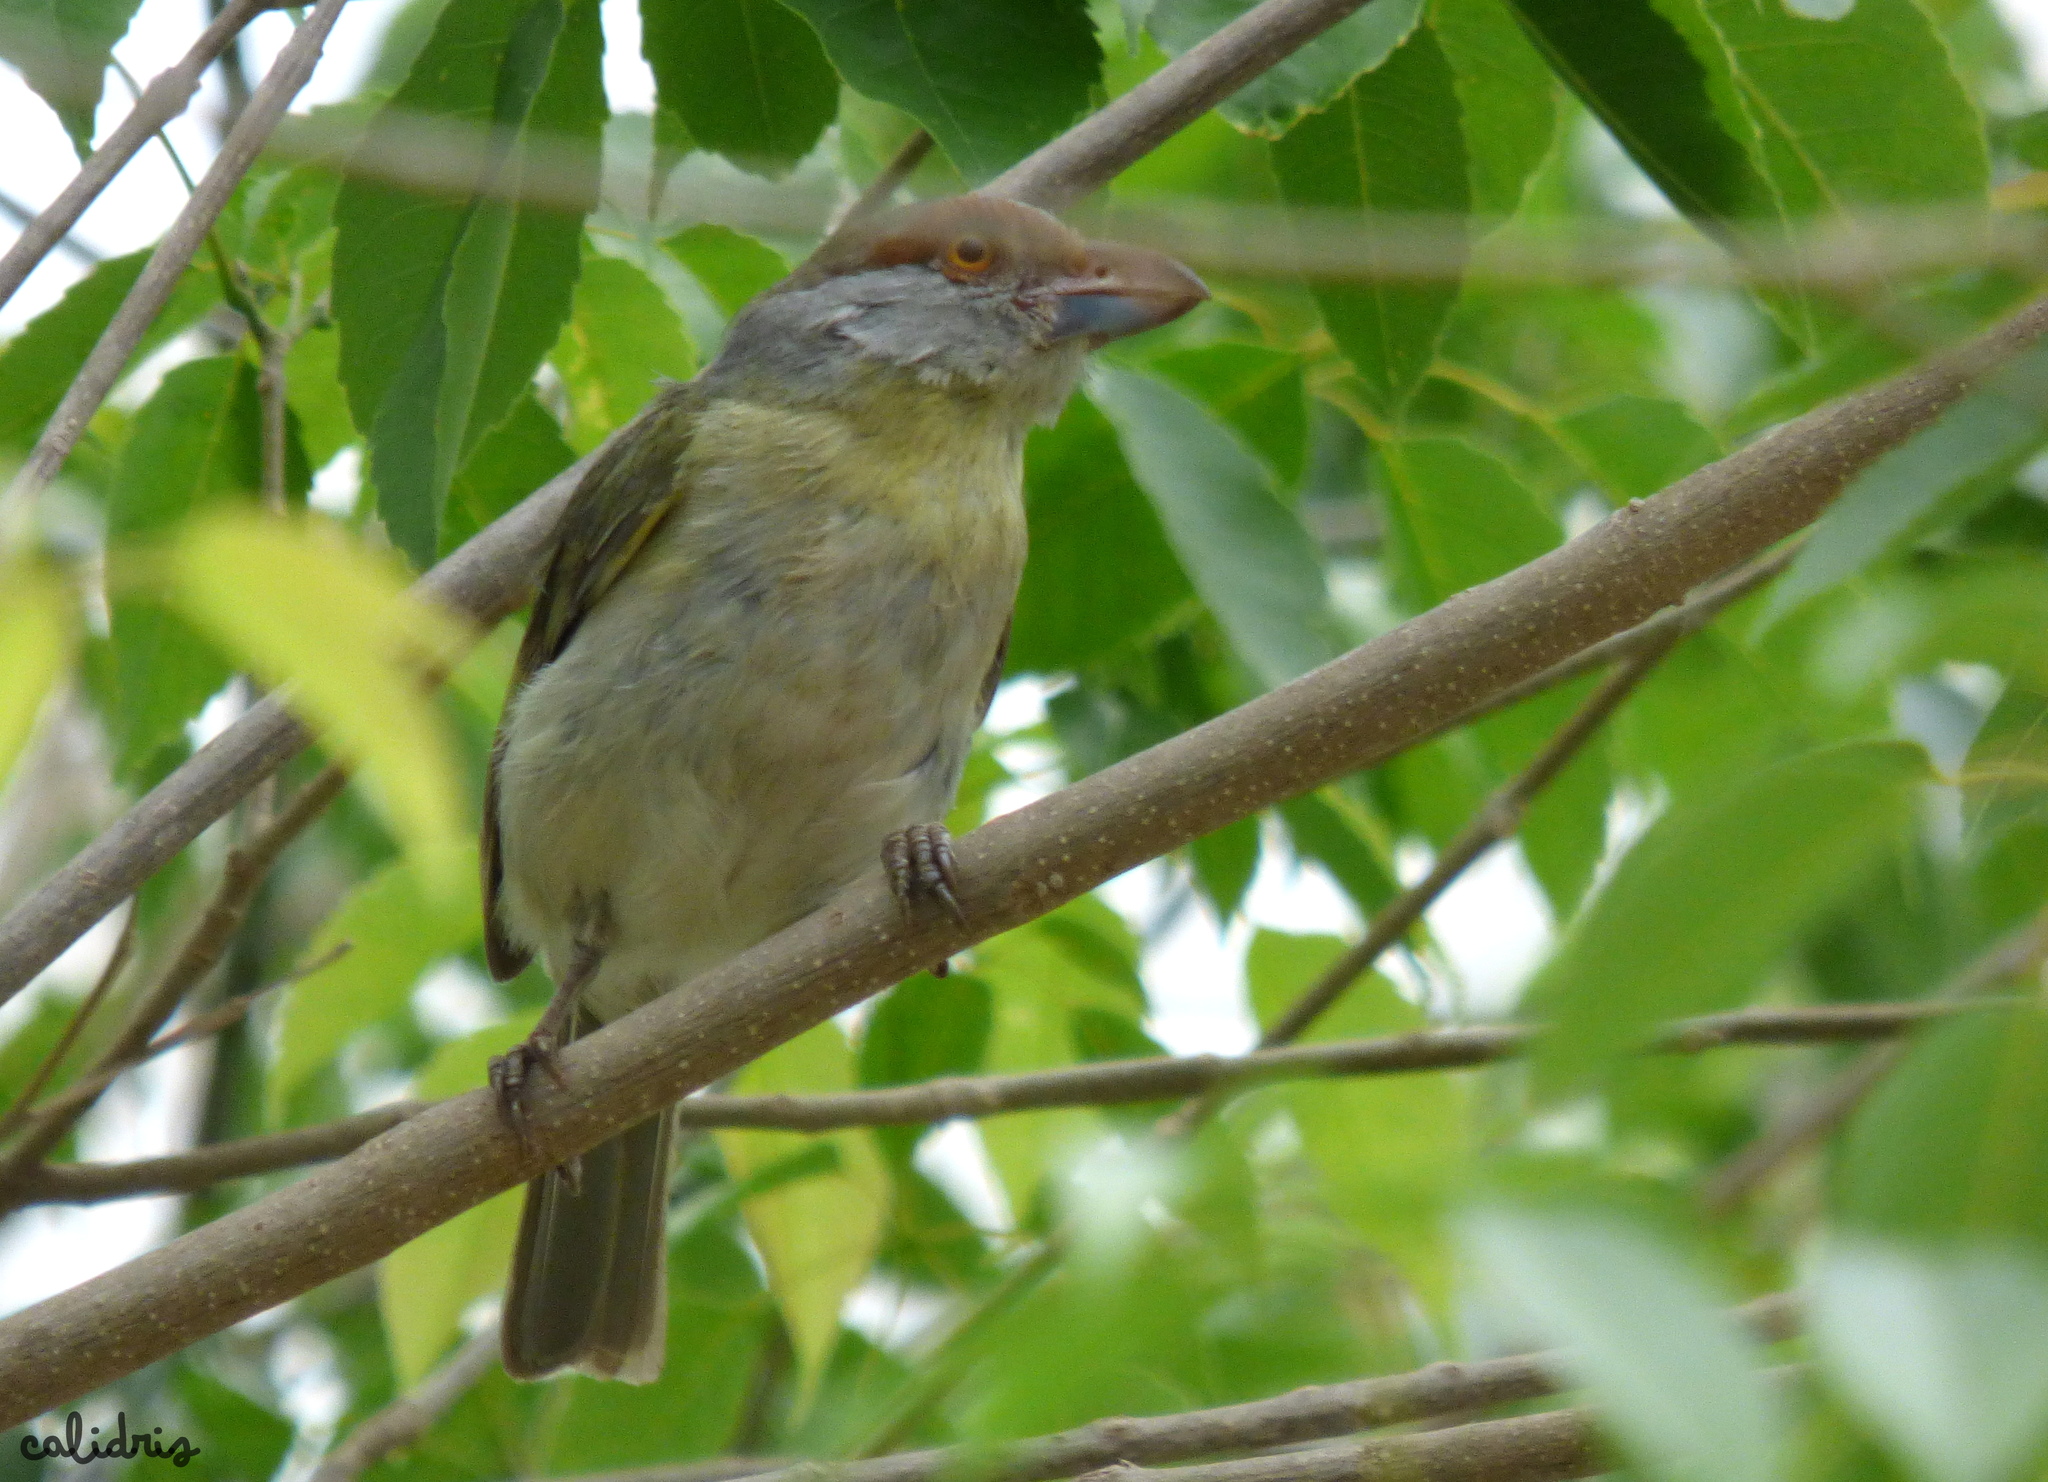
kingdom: Animalia
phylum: Chordata
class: Aves
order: Passeriformes
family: Vireonidae
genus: Cyclarhis
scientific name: Cyclarhis gujanensis
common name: Rufous-browed peppershrike
